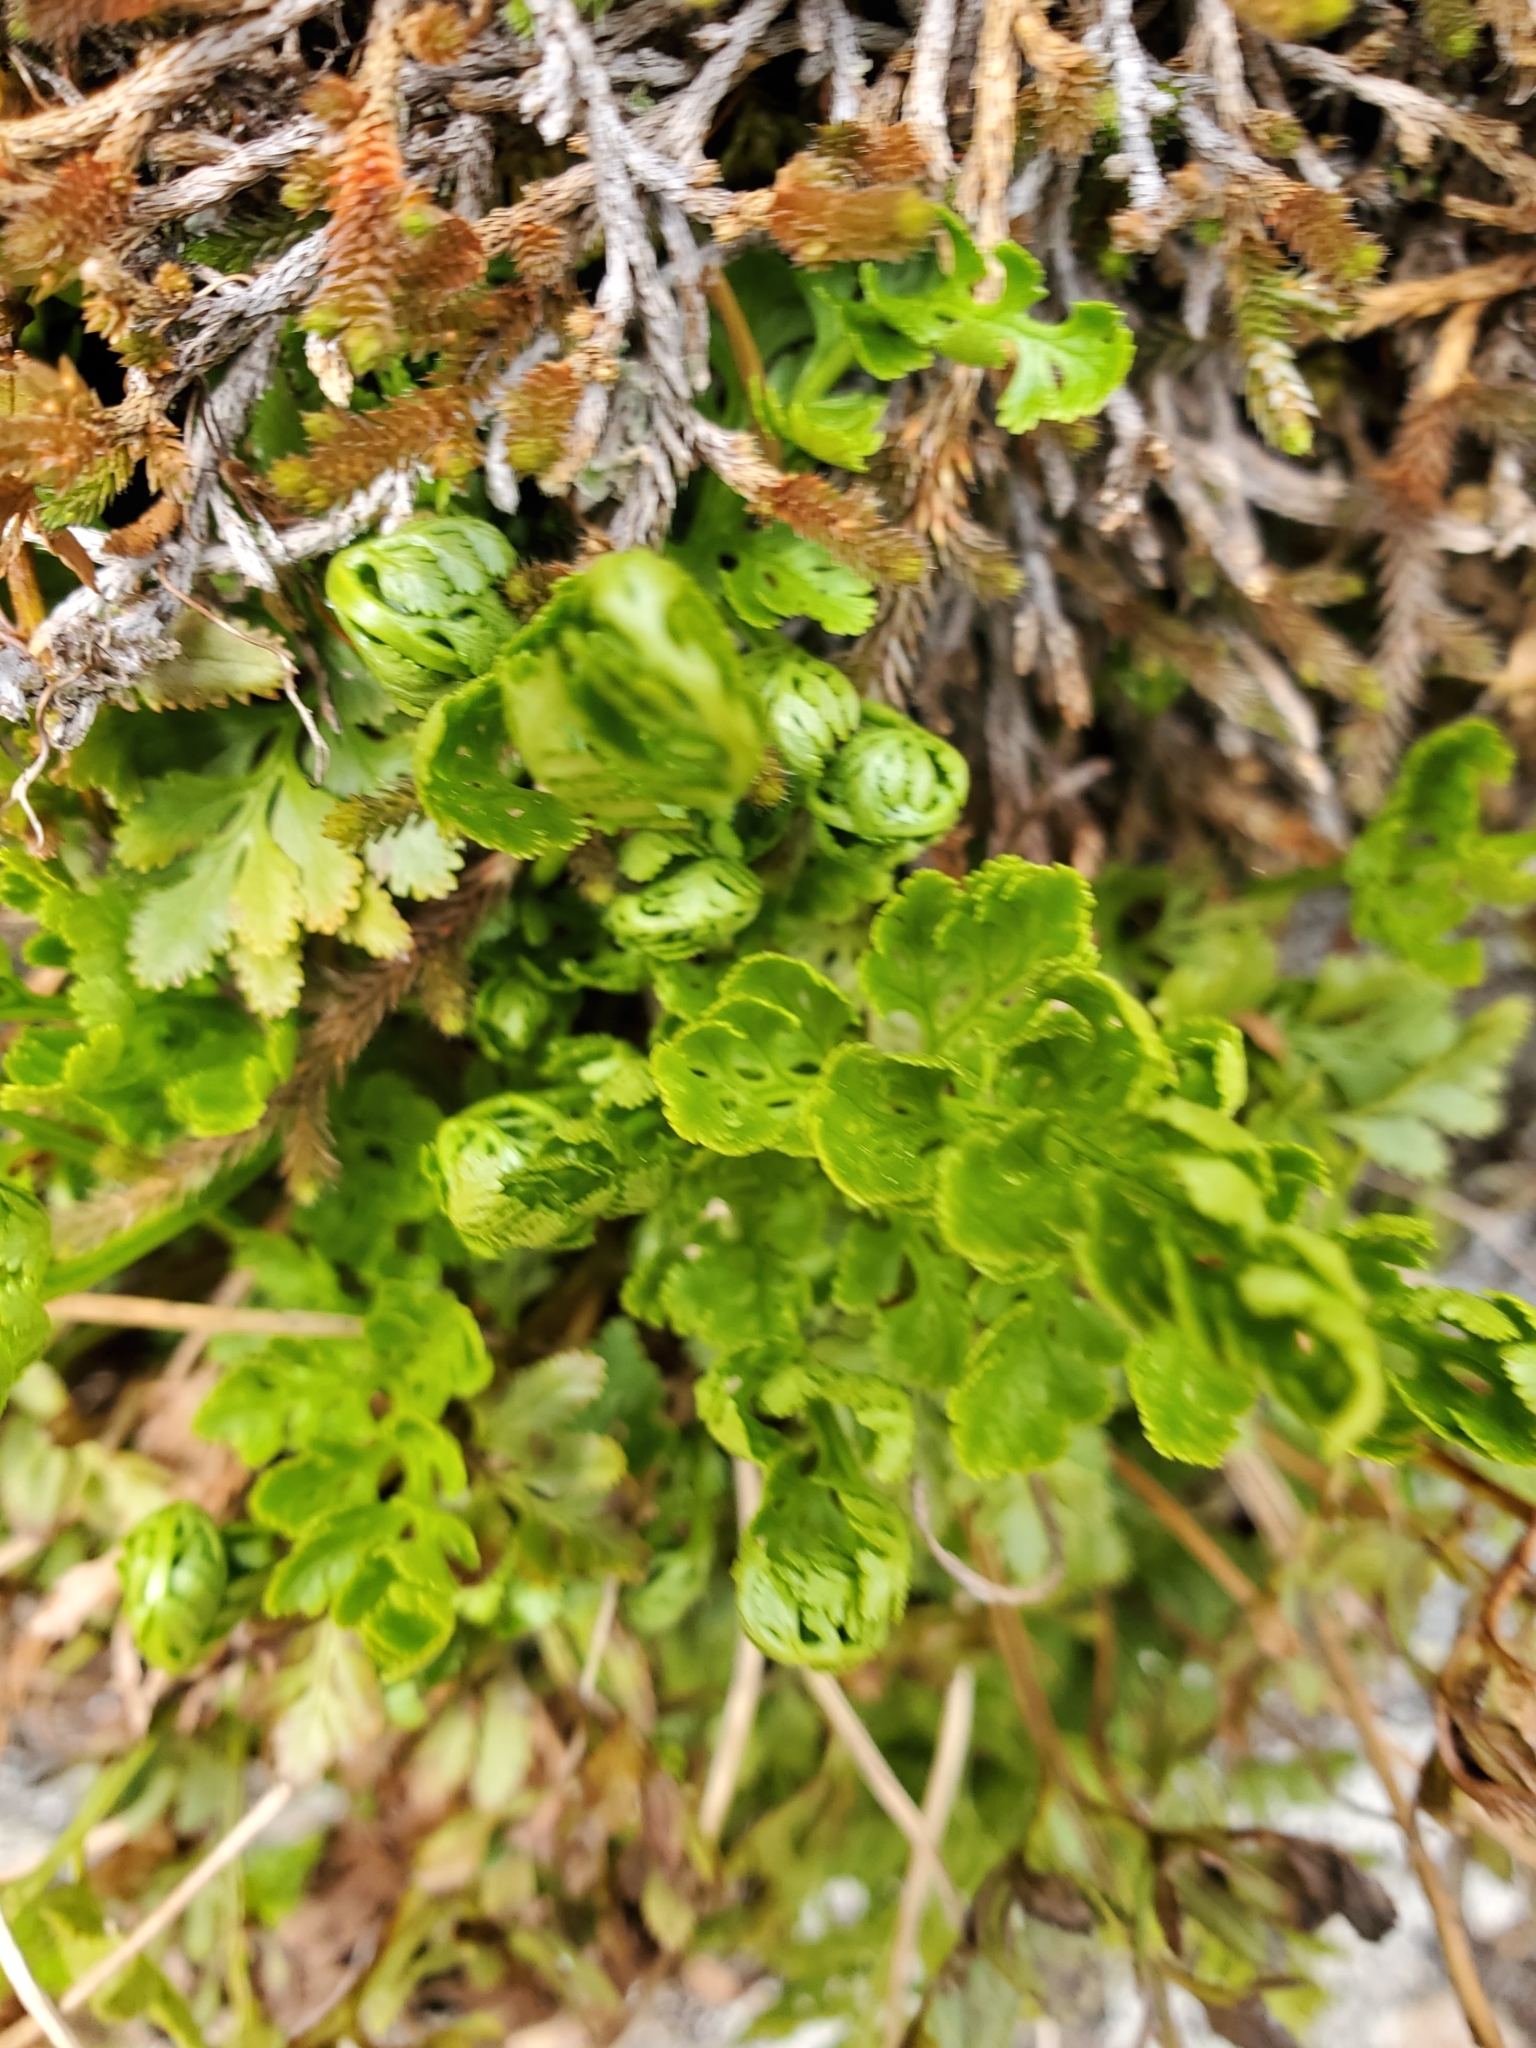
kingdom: Plantae
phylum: Tracheophyta
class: Polypodiopsida
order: Polypodiales
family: Pteridaceae
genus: Cryptogramma
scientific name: Cryptogramma acrostichoides
